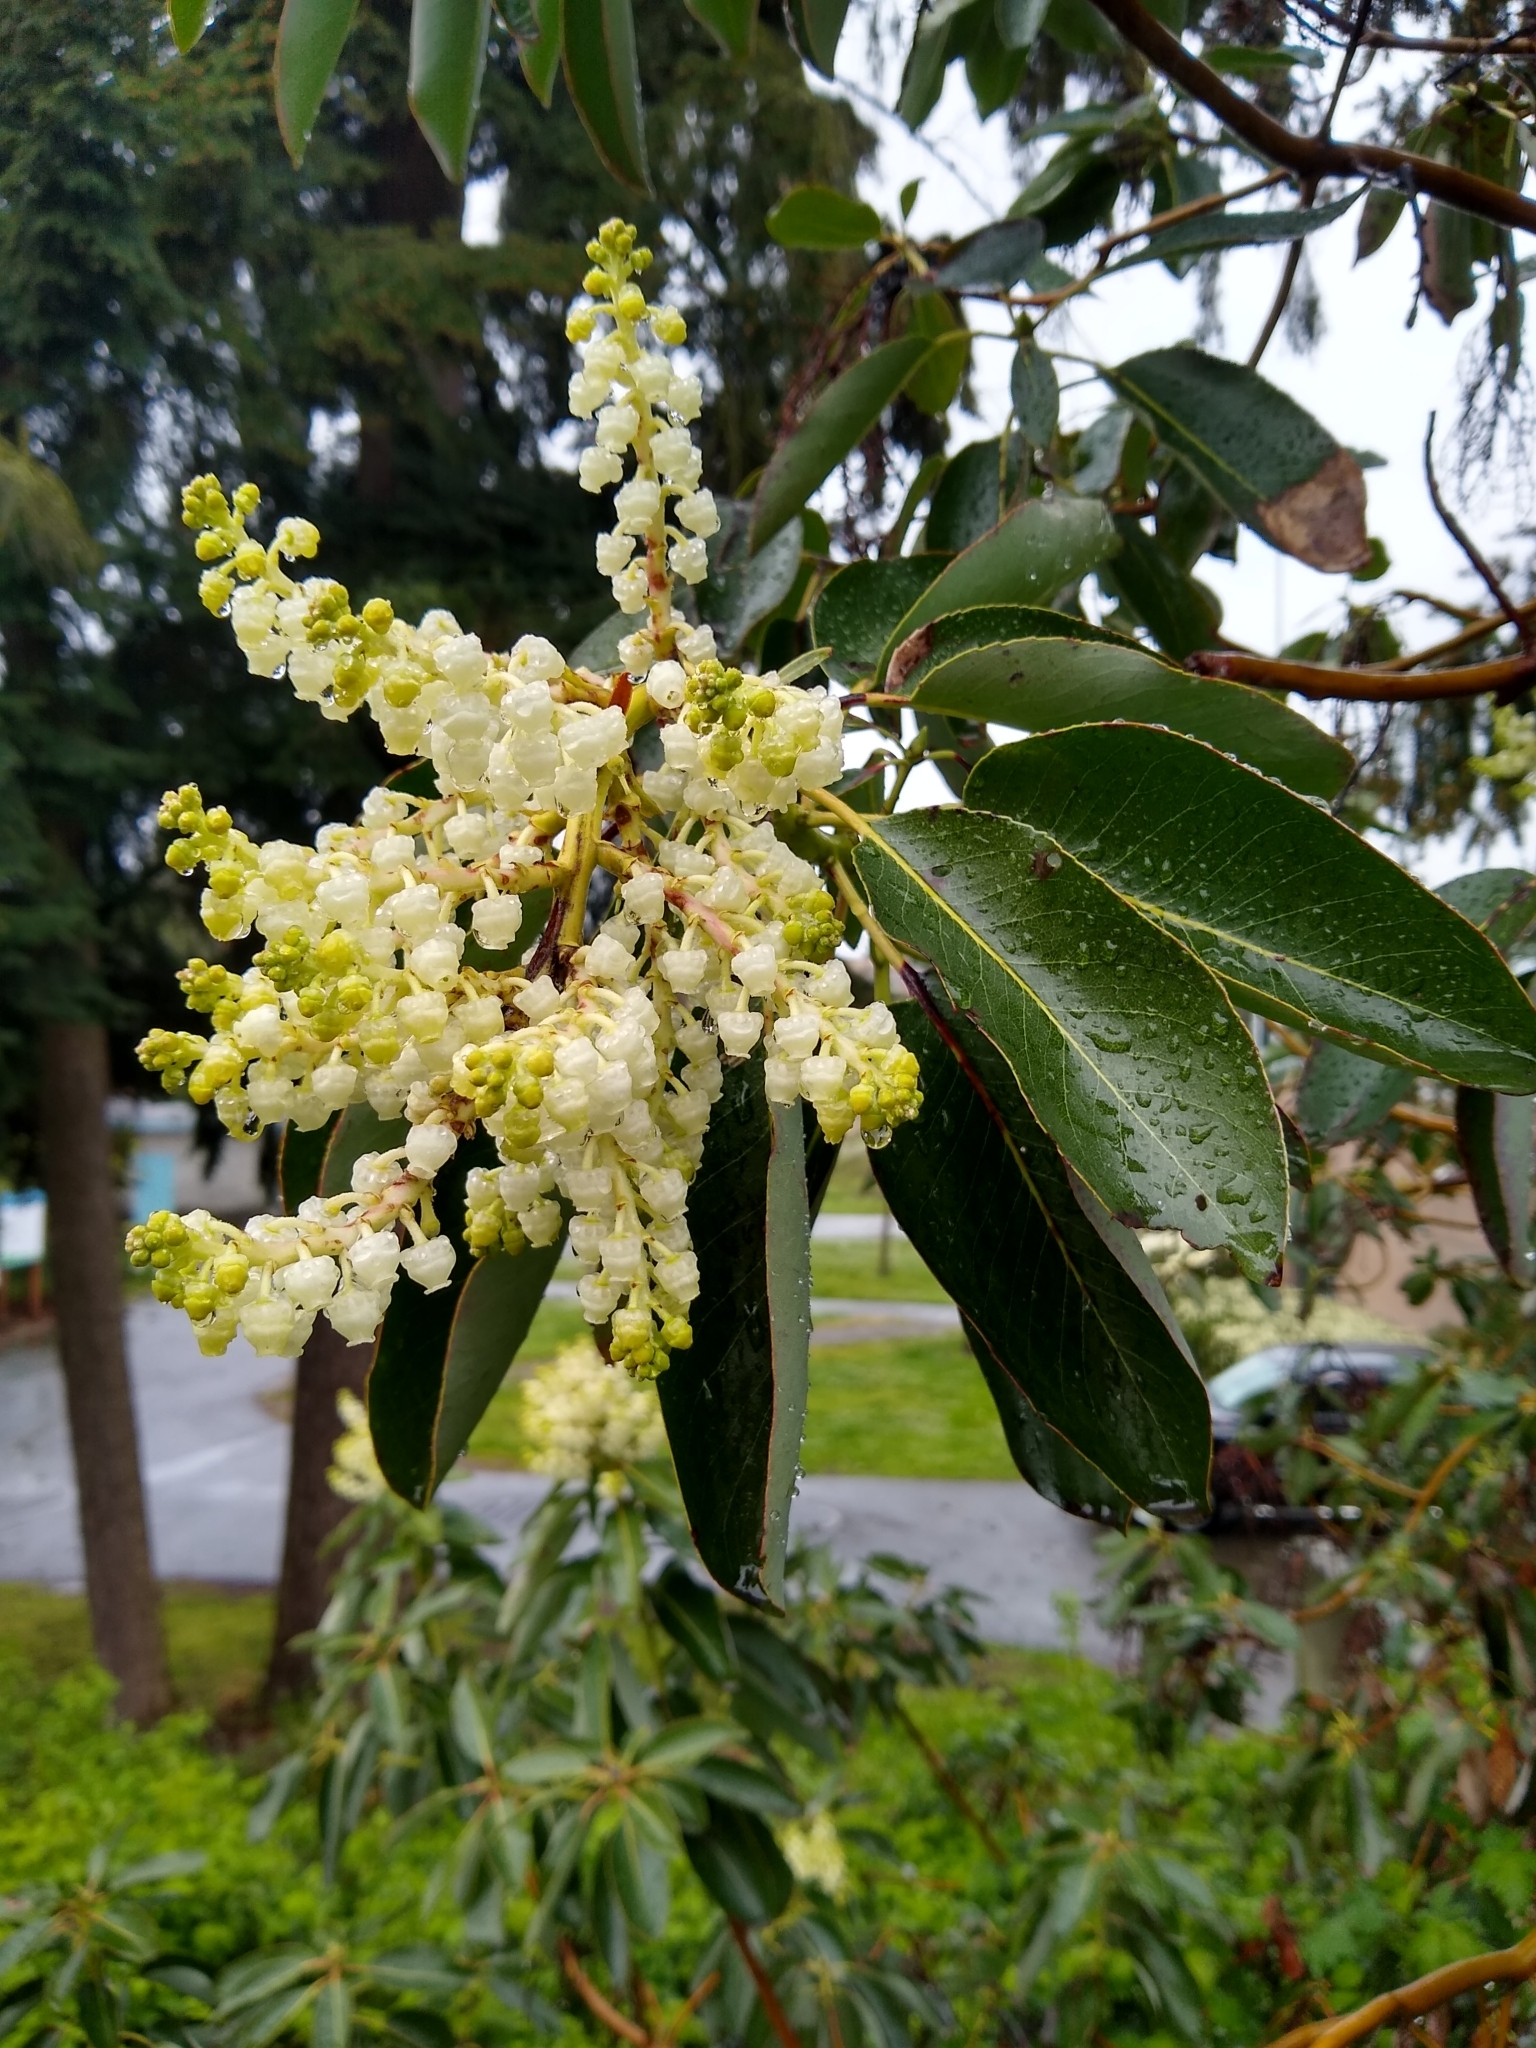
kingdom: Plantae
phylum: Tracheophyta
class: Magnoliopsida
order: Ericales
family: Ericaceae
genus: Arbutus
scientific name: Arbutus menziesii
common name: Pacific madrone
